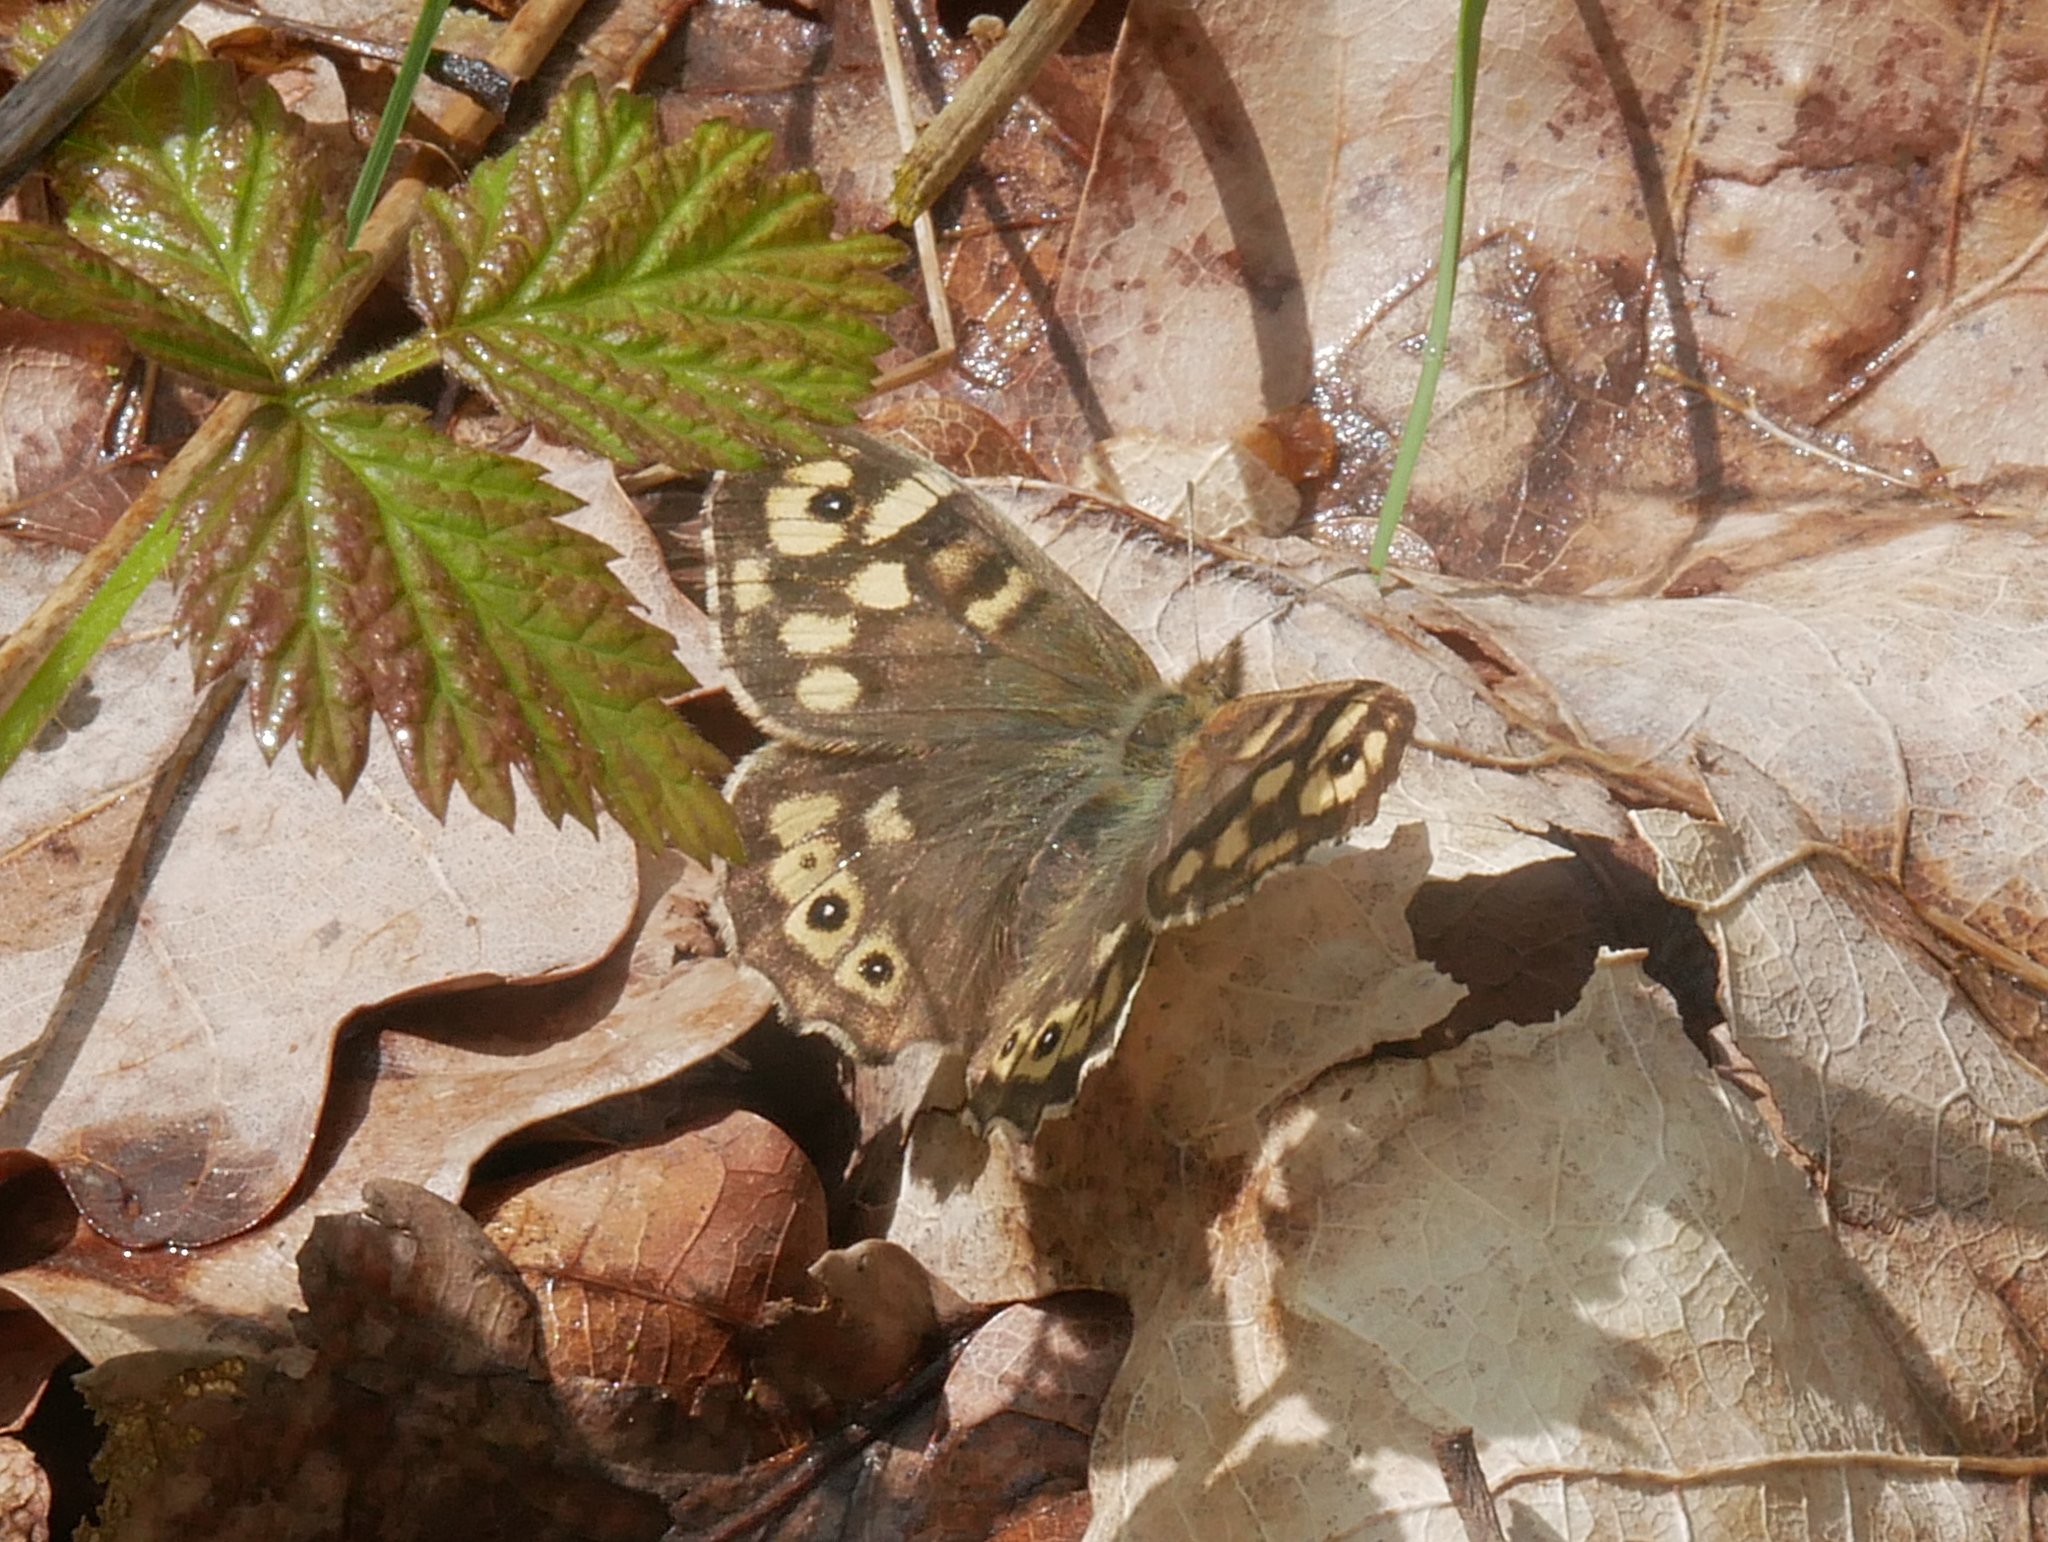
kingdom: Animalia
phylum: Arthropoda
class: Insecta
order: Lepidoptera
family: Nymphalidae
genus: Pararge
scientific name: Pararge aegeria
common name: Speckled wood
